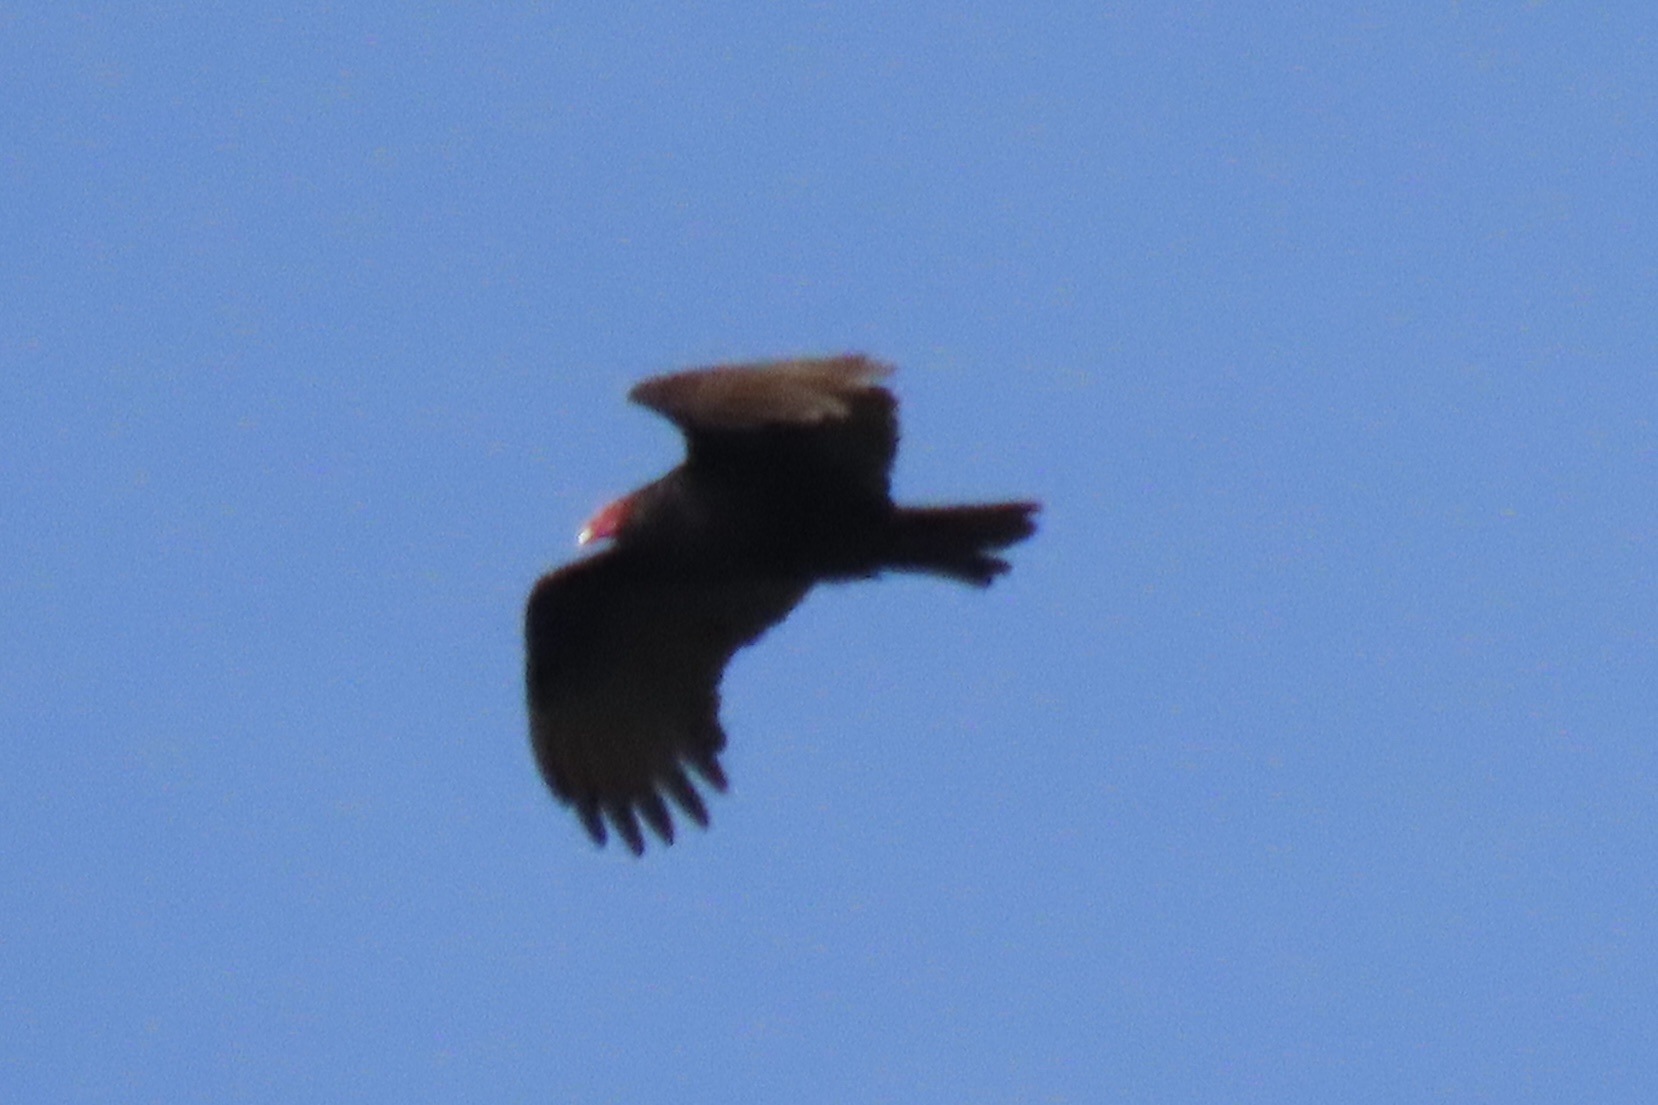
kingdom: Animalia
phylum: Chordata
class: Aves
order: Accipitriformes
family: Cathartidae
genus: Cathartes
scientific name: Cathartes aura
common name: Turkey vulture
